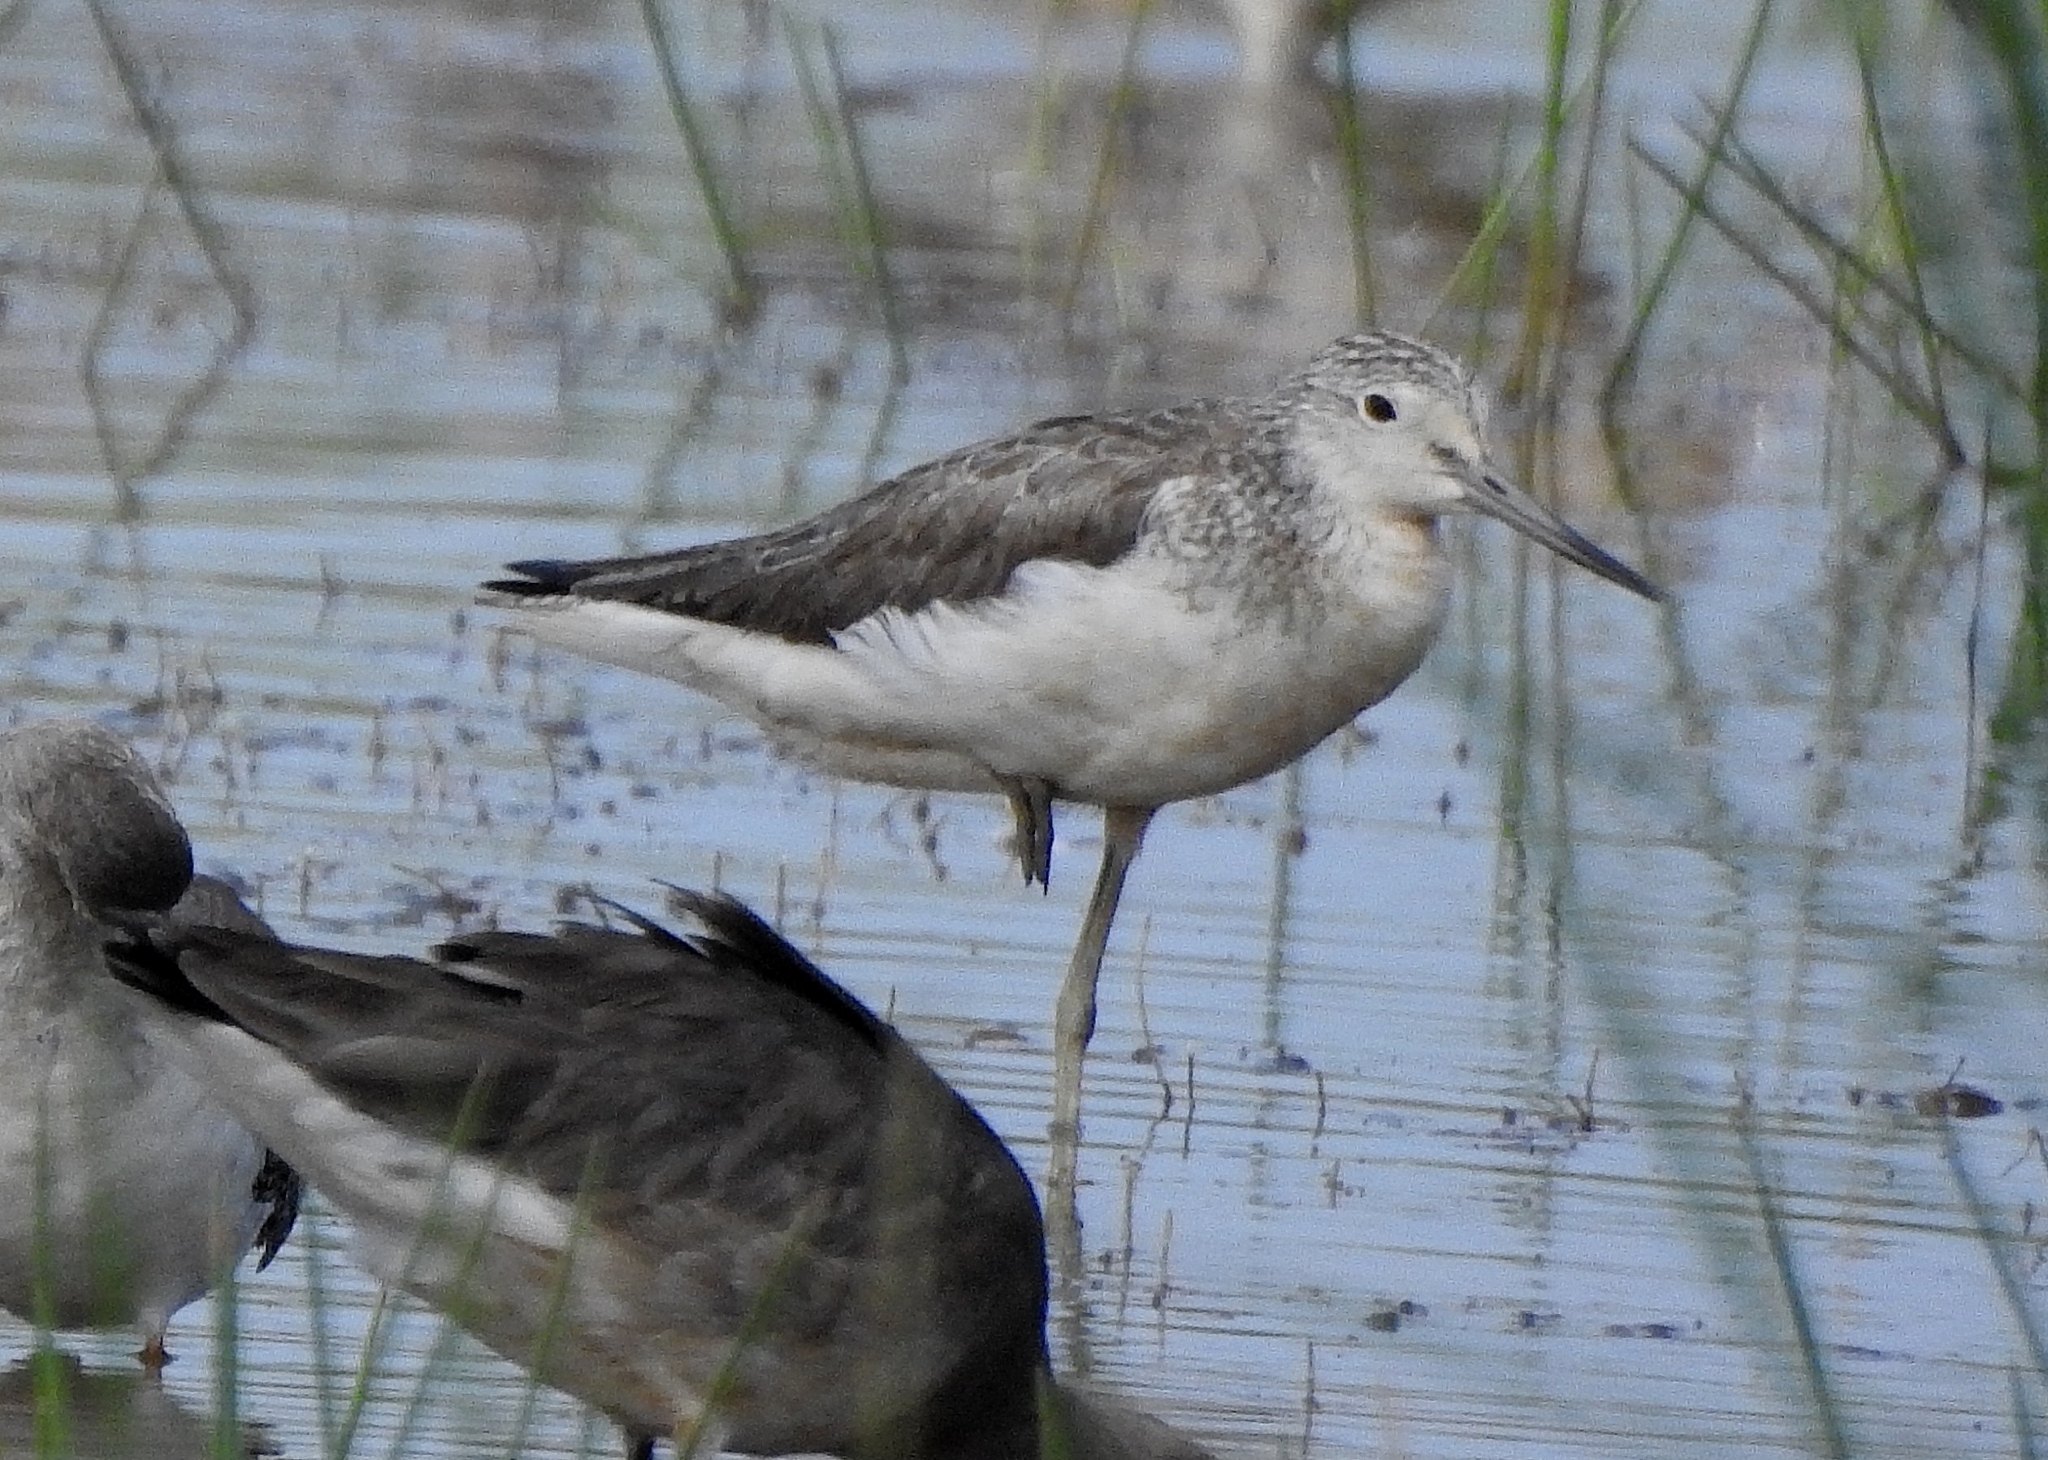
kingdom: Animalia
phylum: Chordata
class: Aves
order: Charadriiformes
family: Scolopacidae
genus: Tringa
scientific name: Tringa nebularia
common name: Common greenshank
